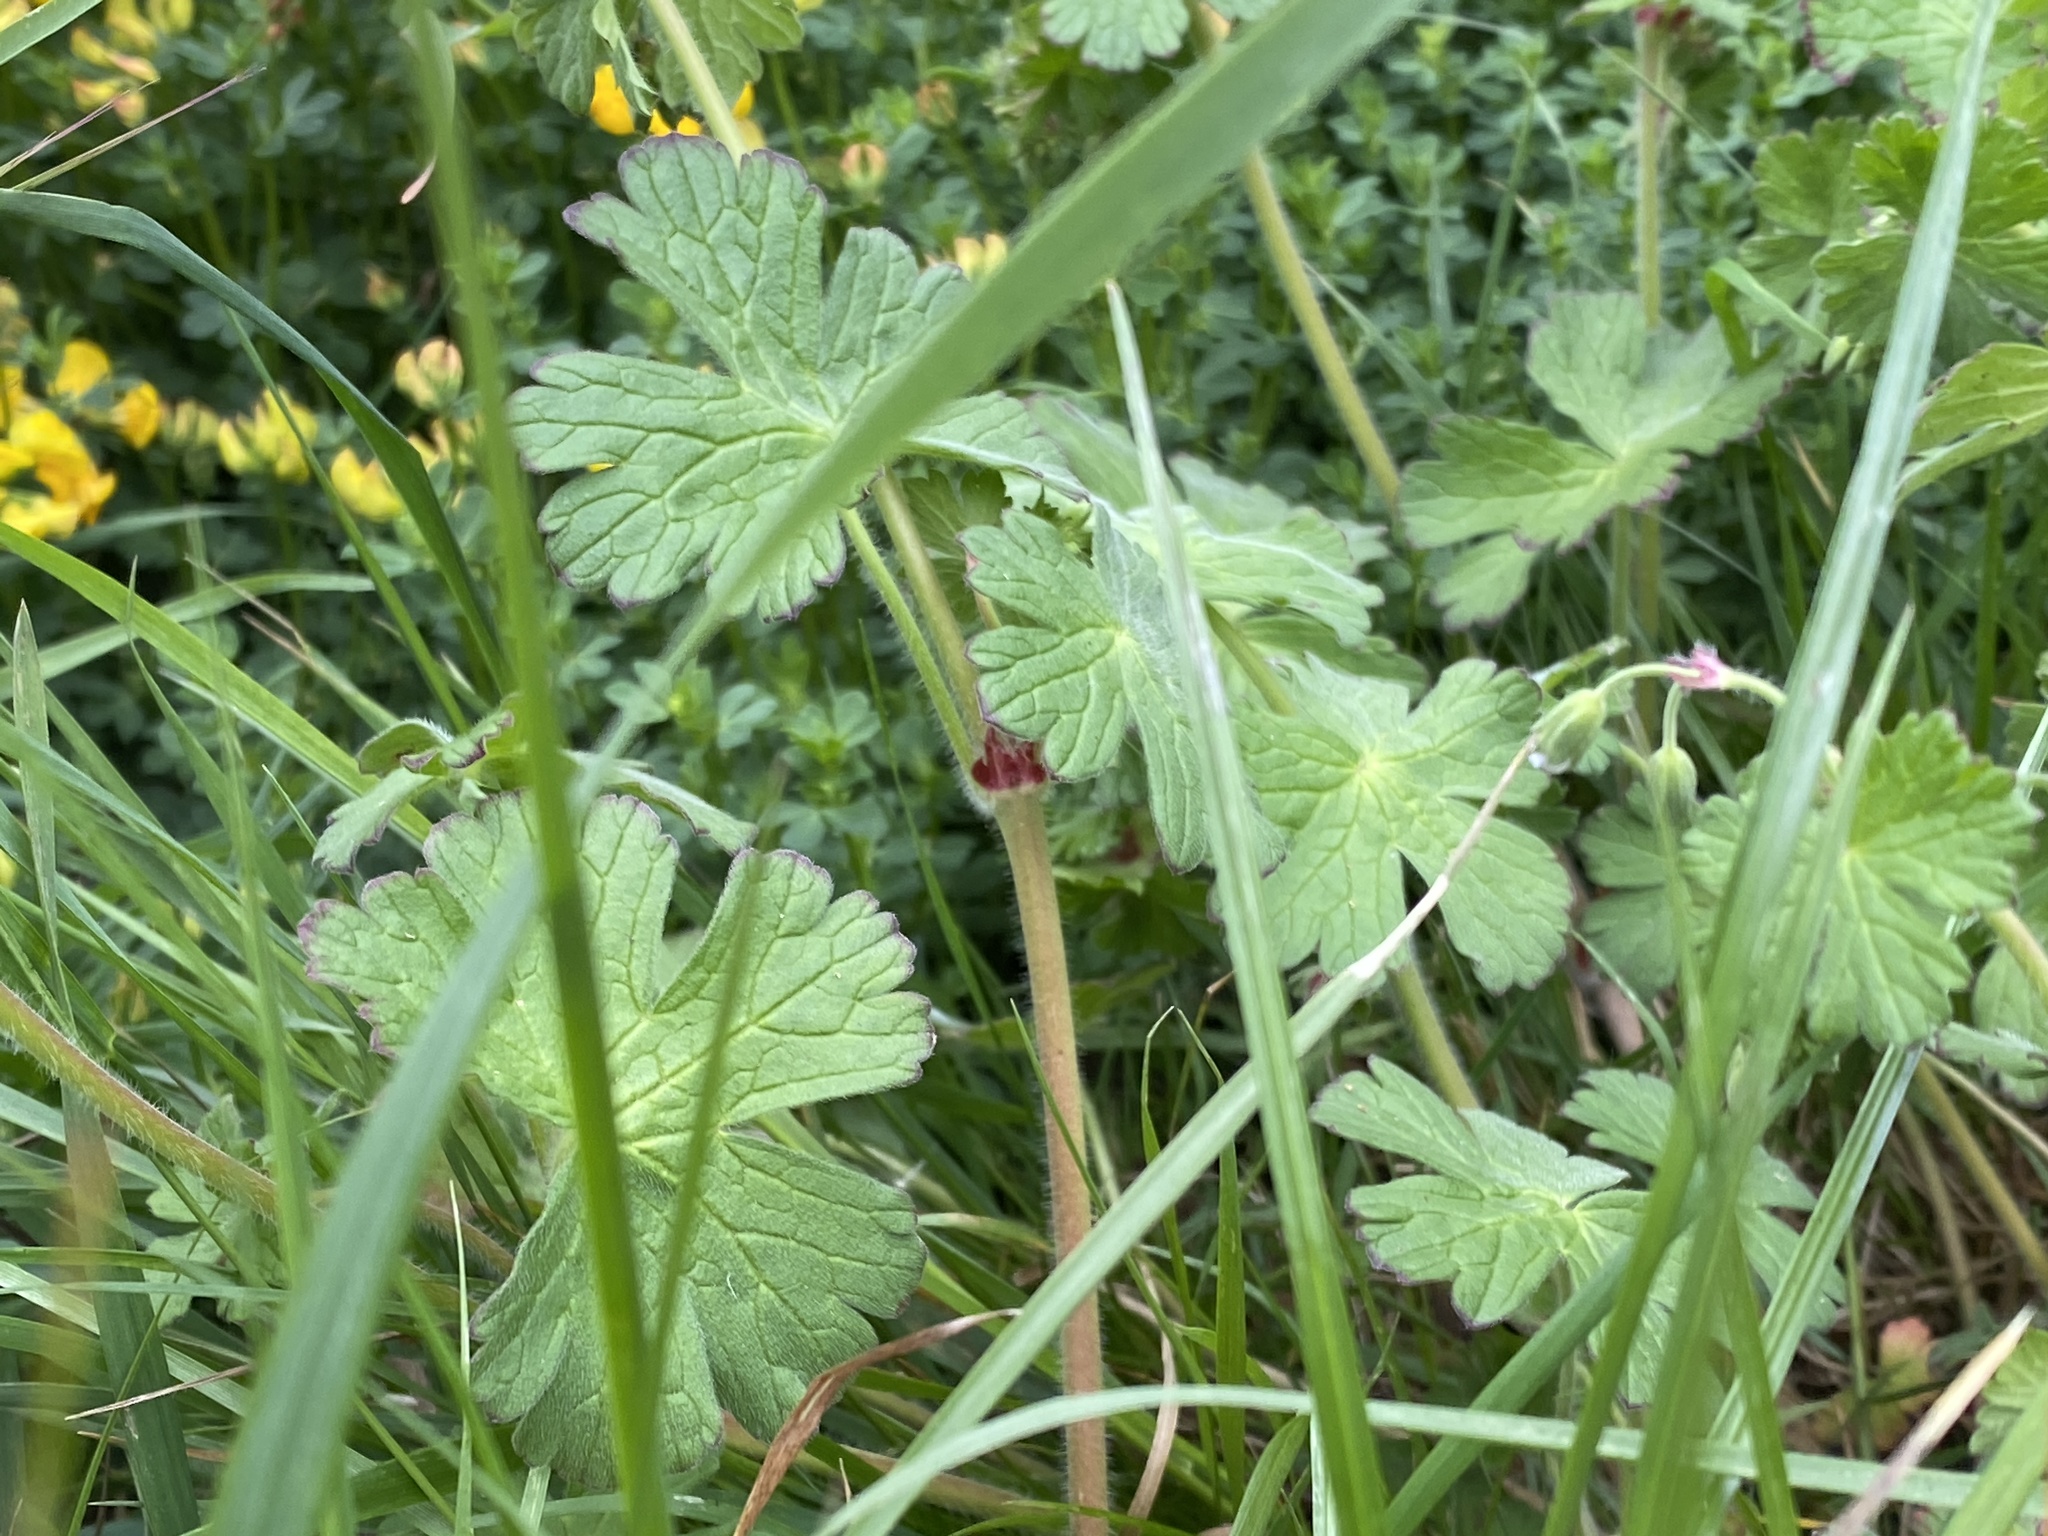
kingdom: Plantae
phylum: Tracheophyta
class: Magnoliopsida
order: Geraniales
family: Geraniaceae
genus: Geranium
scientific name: Geranium pyrenaicum
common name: Hedgerow crane's-bill
